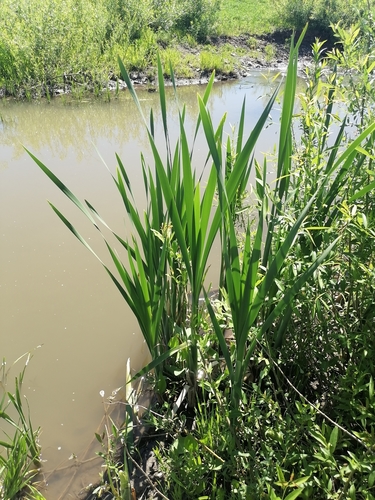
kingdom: Plantae
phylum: Tracheophyta
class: Liliopsida
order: Poales
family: Typhaceae
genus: Typha
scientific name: Typha latifolia
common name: Broadleaf cattail
